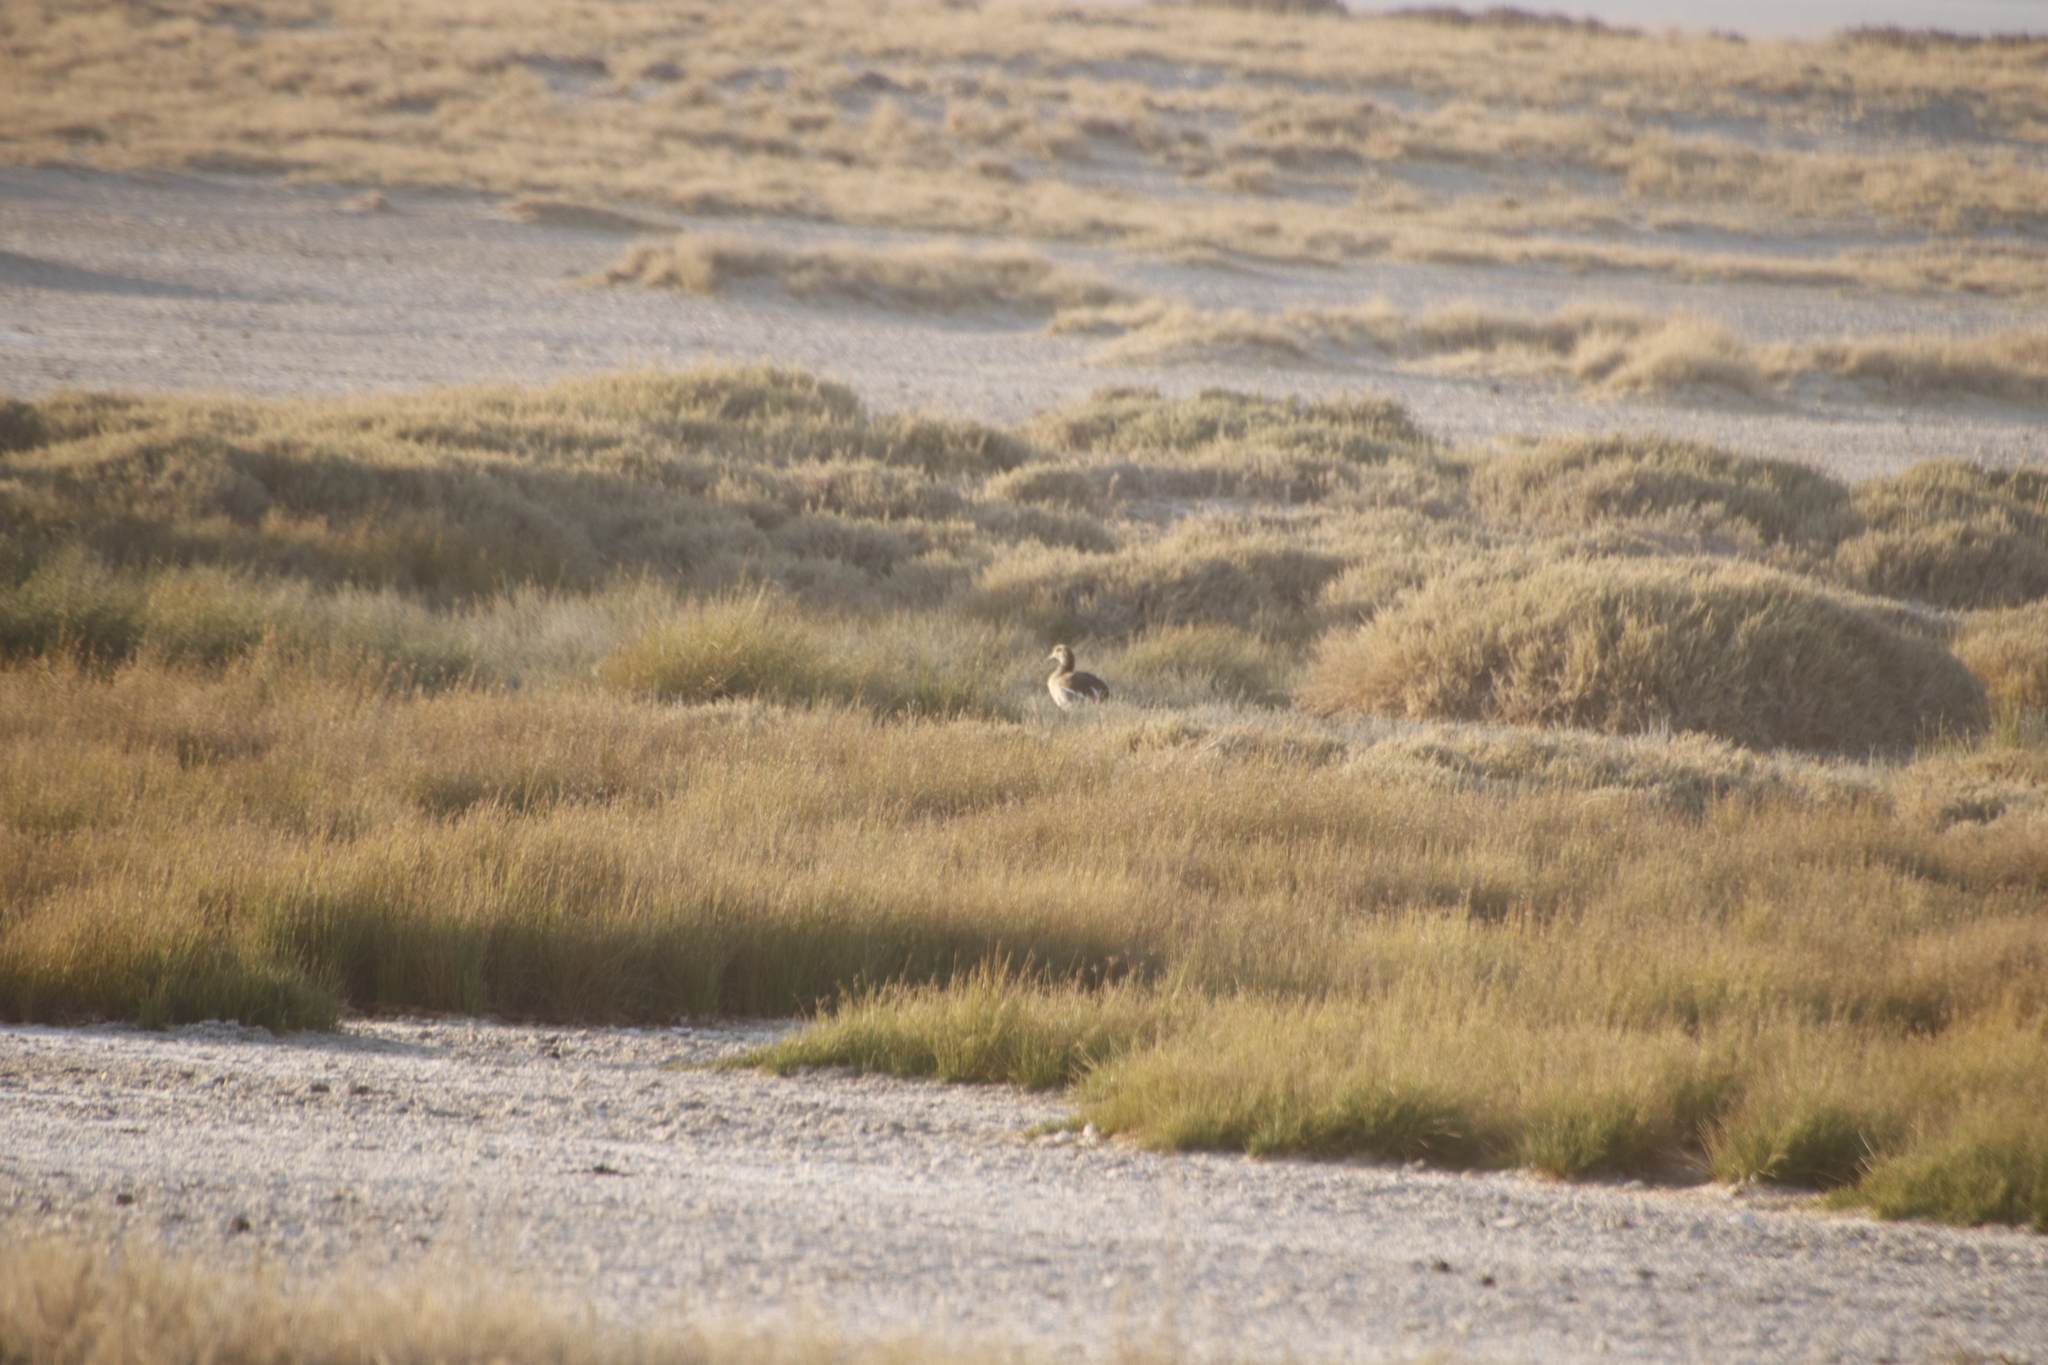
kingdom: Animalia
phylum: Chordata
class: Aves
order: Anseriformes
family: Anatidae
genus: Alopochen
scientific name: Alopochen aegyptiaca
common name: Egyptian goose
